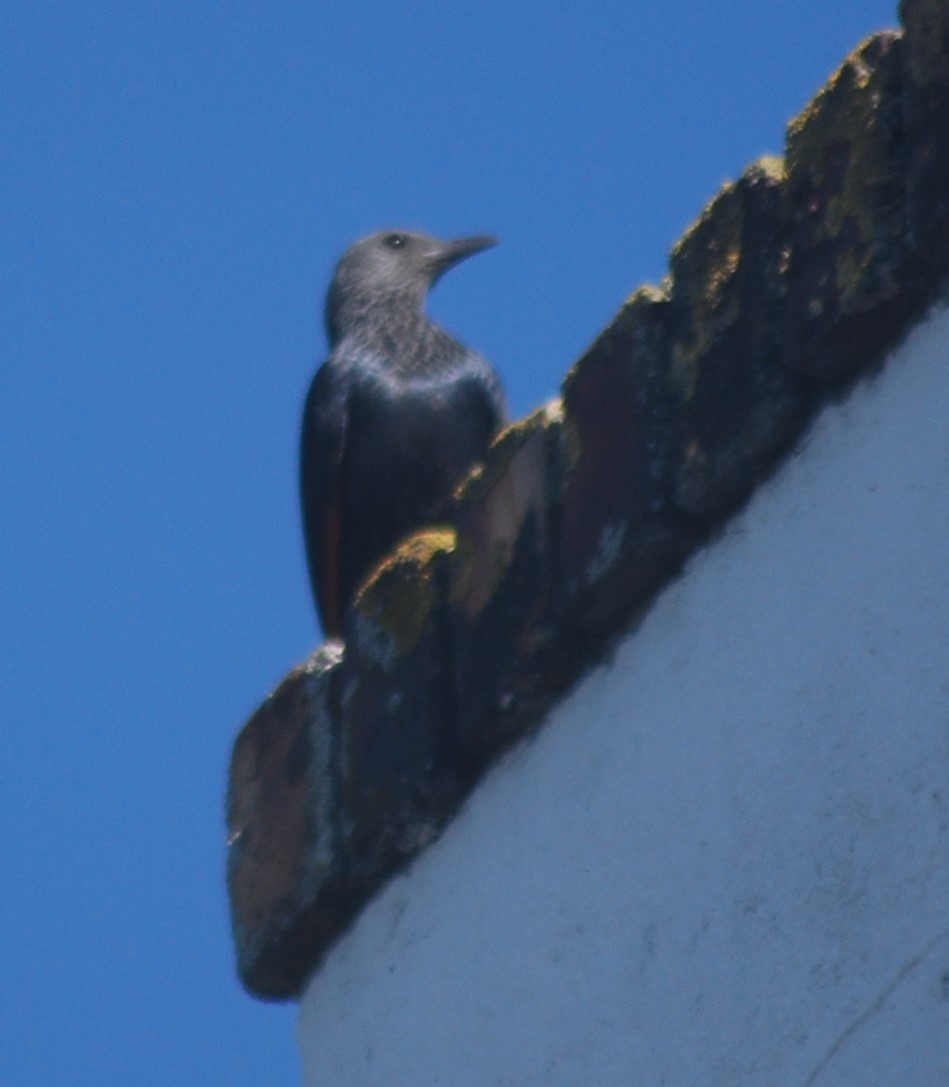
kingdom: Animalia
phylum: Chordata
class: Aves
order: Passeriformes
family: Sturnidae
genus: Onychognathus
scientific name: Onychognathus morio
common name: Red-winged starling
